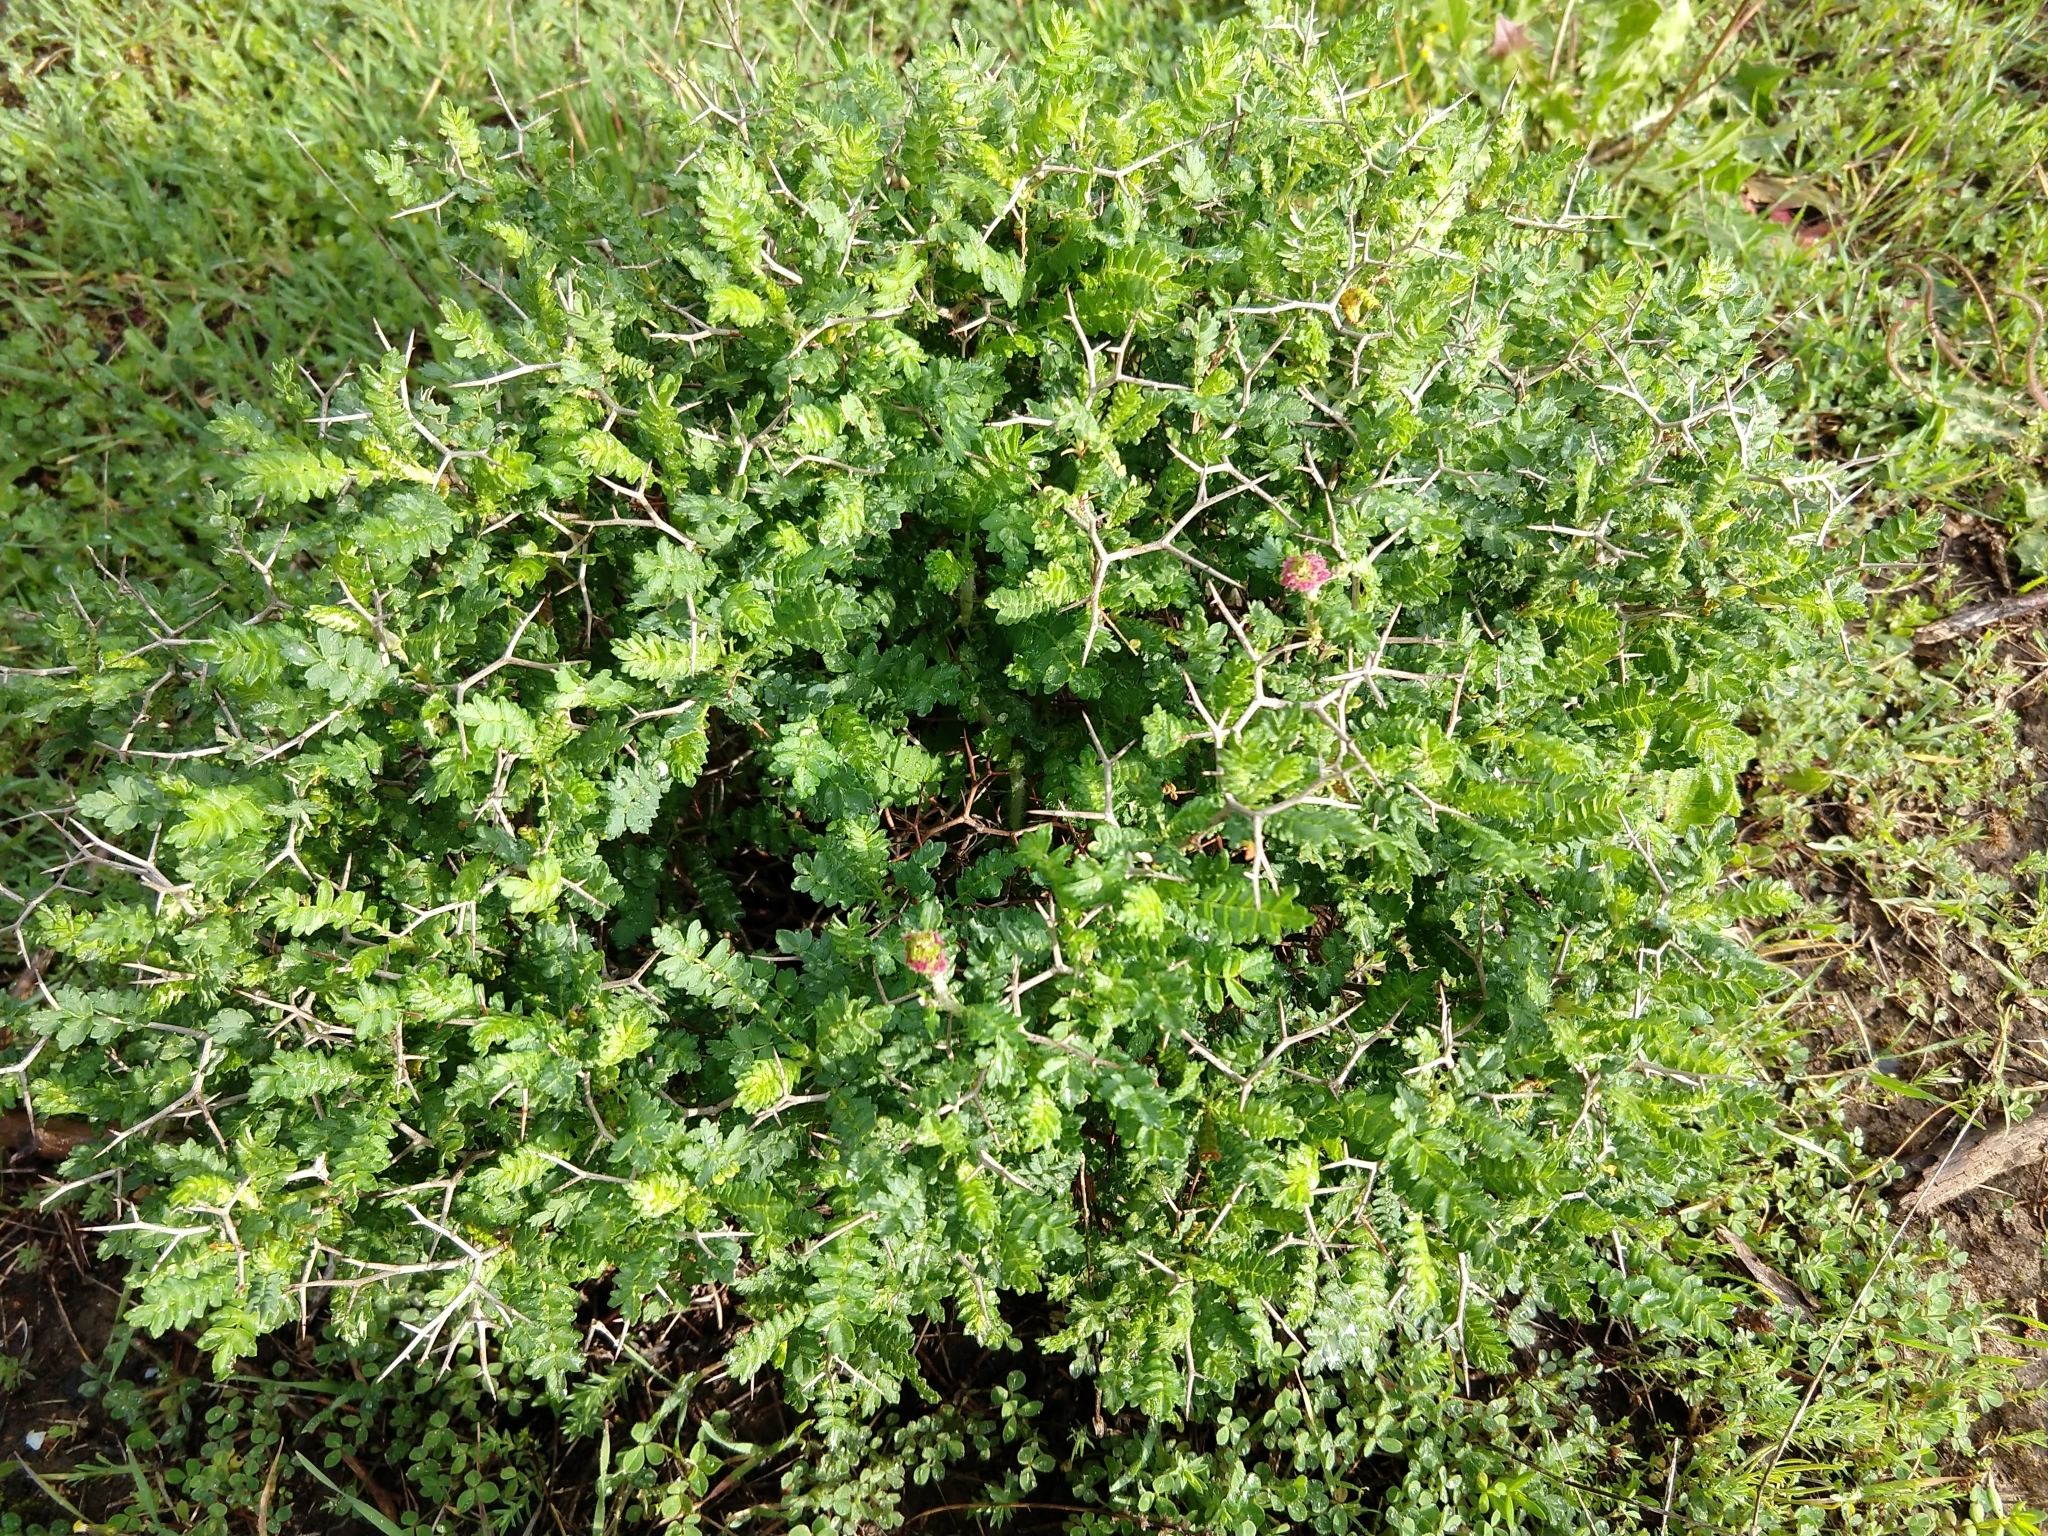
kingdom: Plantae
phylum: Tracheophyta
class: Magnoliopsida
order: Rosales
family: Rosaceae
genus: Sarcopoterium
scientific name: Sarcopoterium spinosum
